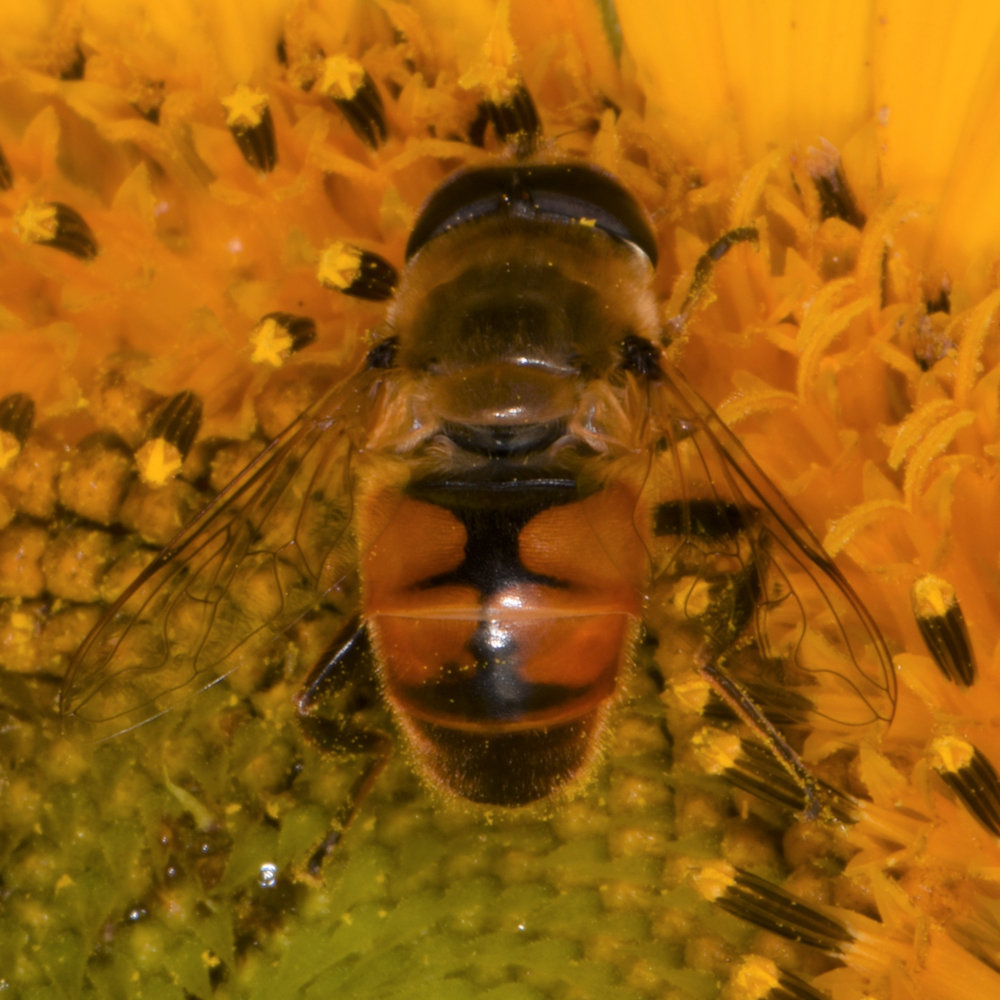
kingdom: Animalia
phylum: Arthropoda
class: Insecta
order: Diptera
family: Syrphidae
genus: Eristalis
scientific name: Eristalis tenax
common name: Drone fly
